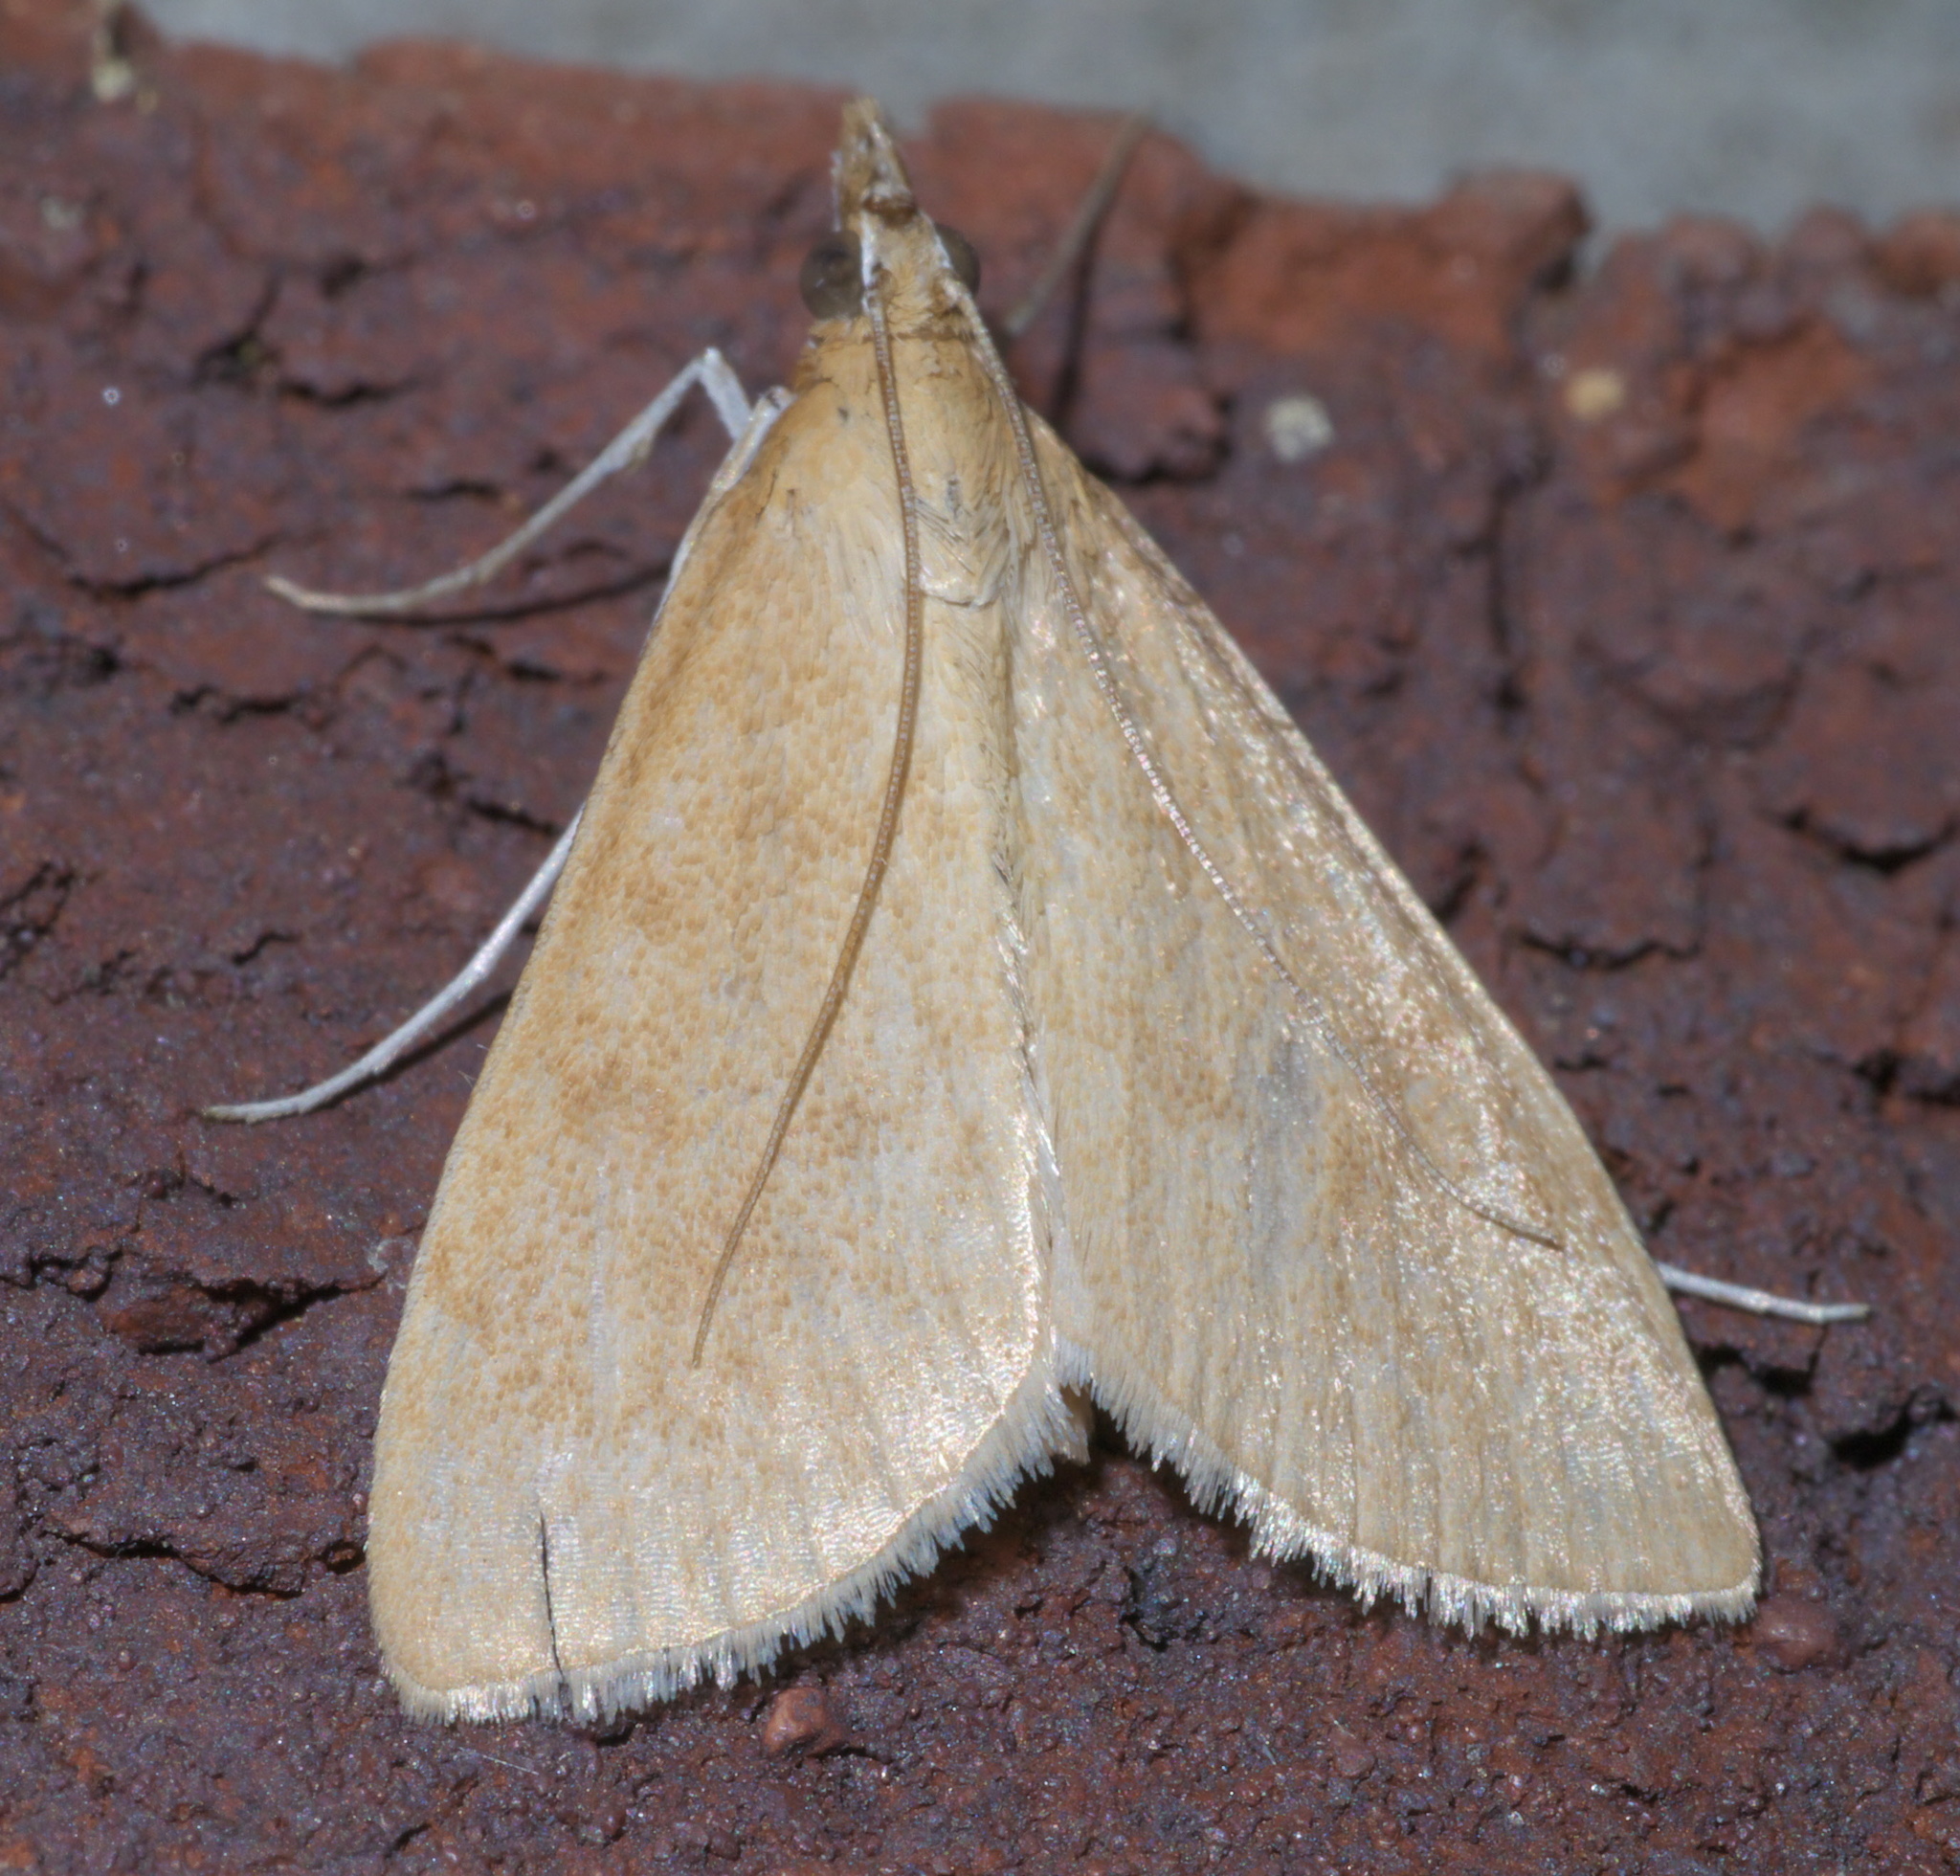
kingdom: Animalia
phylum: Arthropoda
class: Insecta
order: Lepidoptera
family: Crambidae
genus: Achyra
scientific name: Achyra rantalis
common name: Garden webworm
